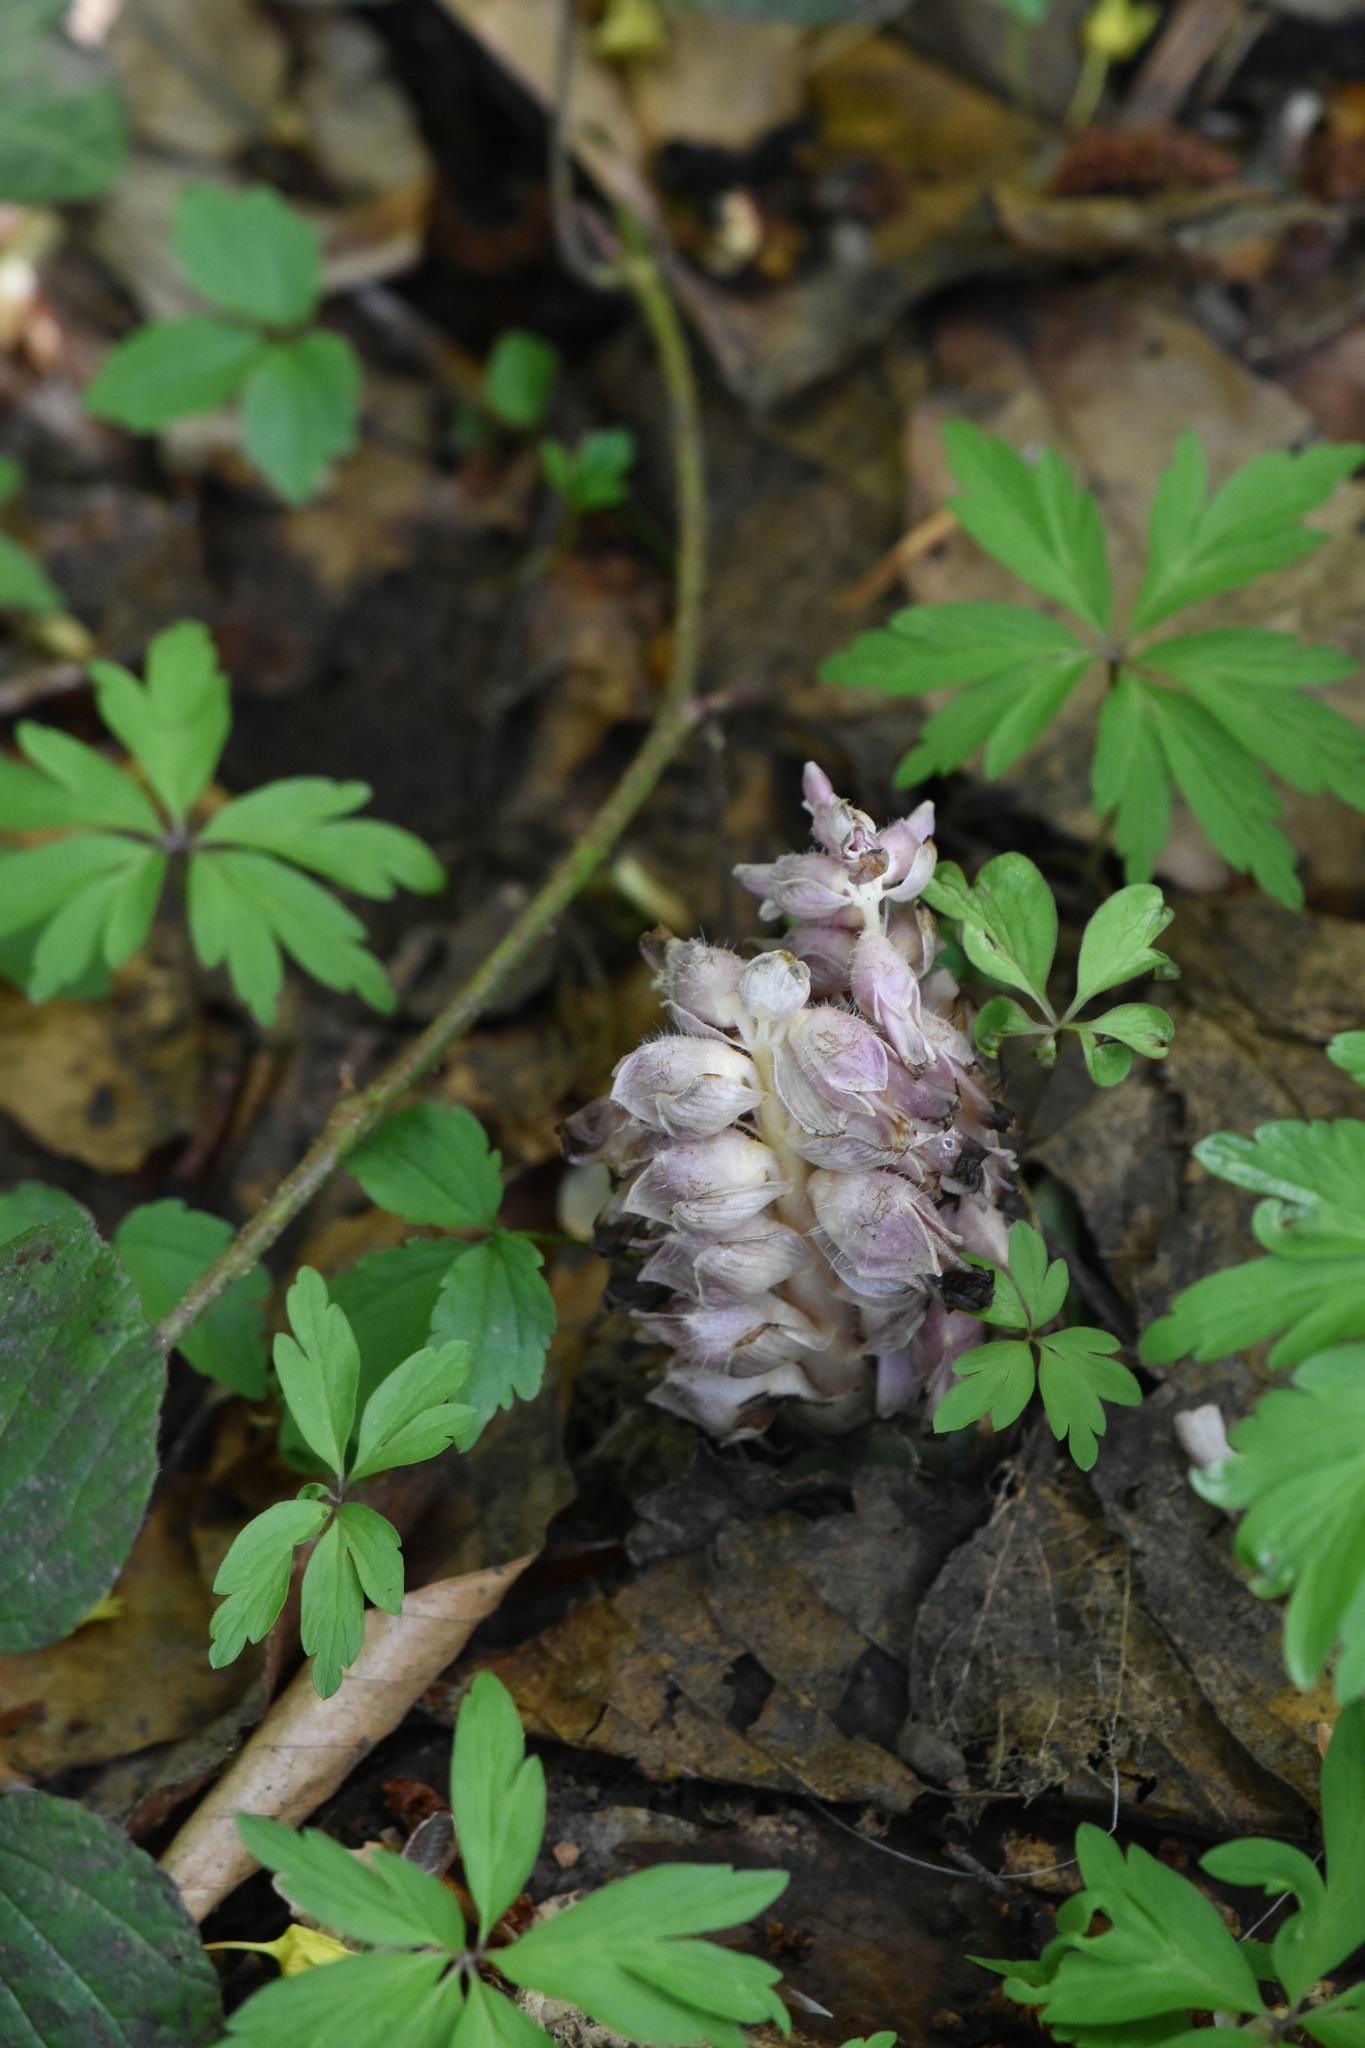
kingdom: Plantae
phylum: Tracheophyta
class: Magnoliopsida
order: Lamiales
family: Orobanchaceae
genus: Lathraea
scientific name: Lathraea squamaria
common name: Toothwort
